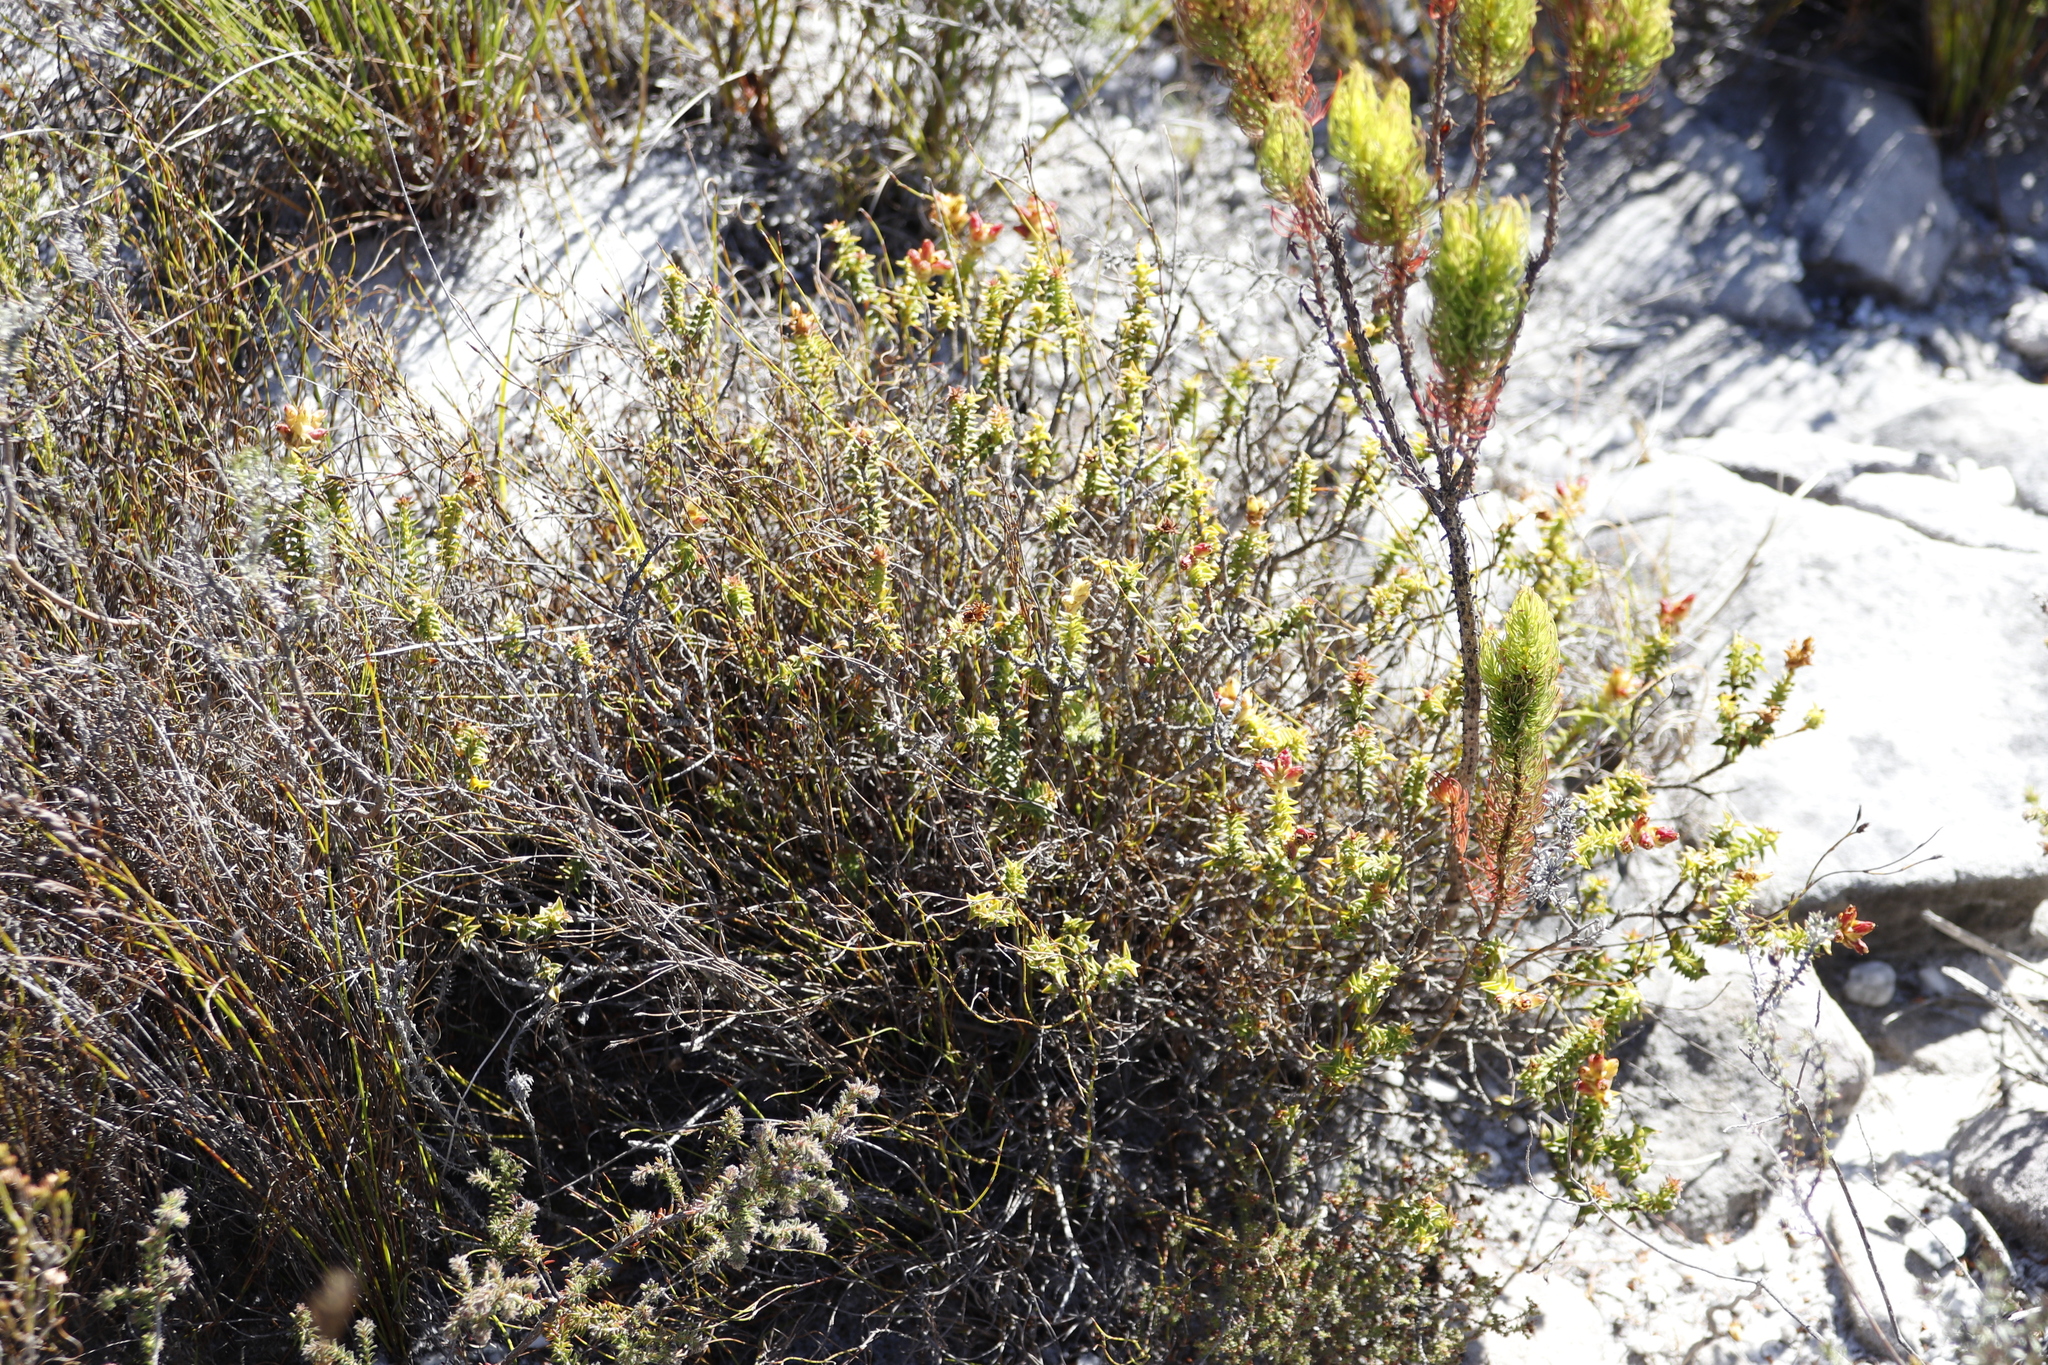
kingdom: Plantae
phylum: Tracheophyta
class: Magnoliopsida
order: Myrtales
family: Penaeaceae
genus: Penaea
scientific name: Penaea mucronata
